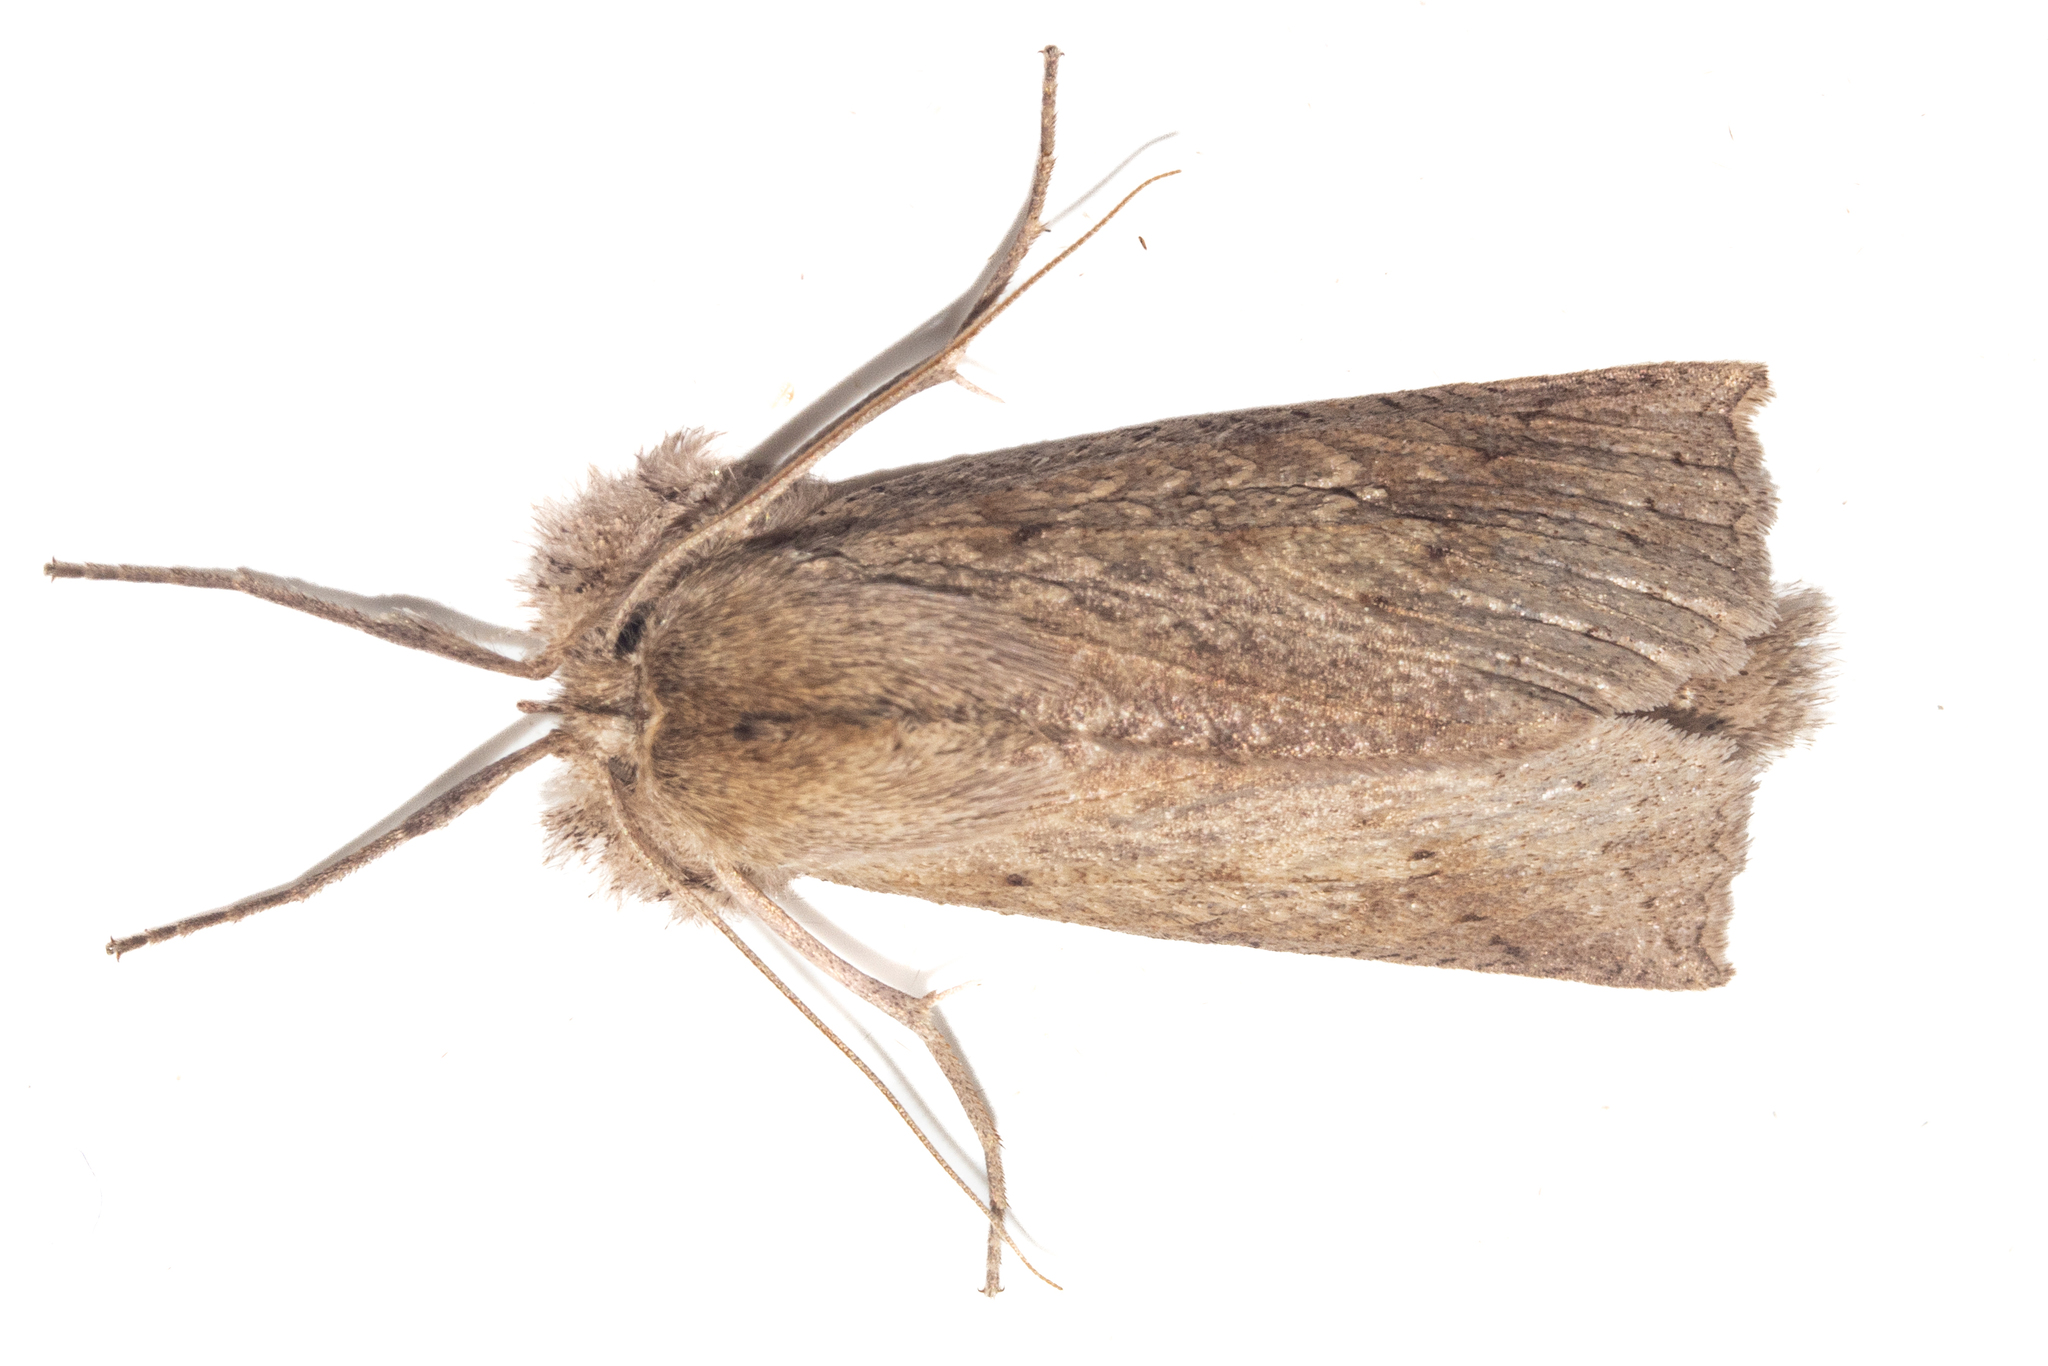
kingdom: Animalia
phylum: Arthropoda
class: Insecta
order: Lepidoptera
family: Geometridae
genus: Declana
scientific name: Declana leptomera
